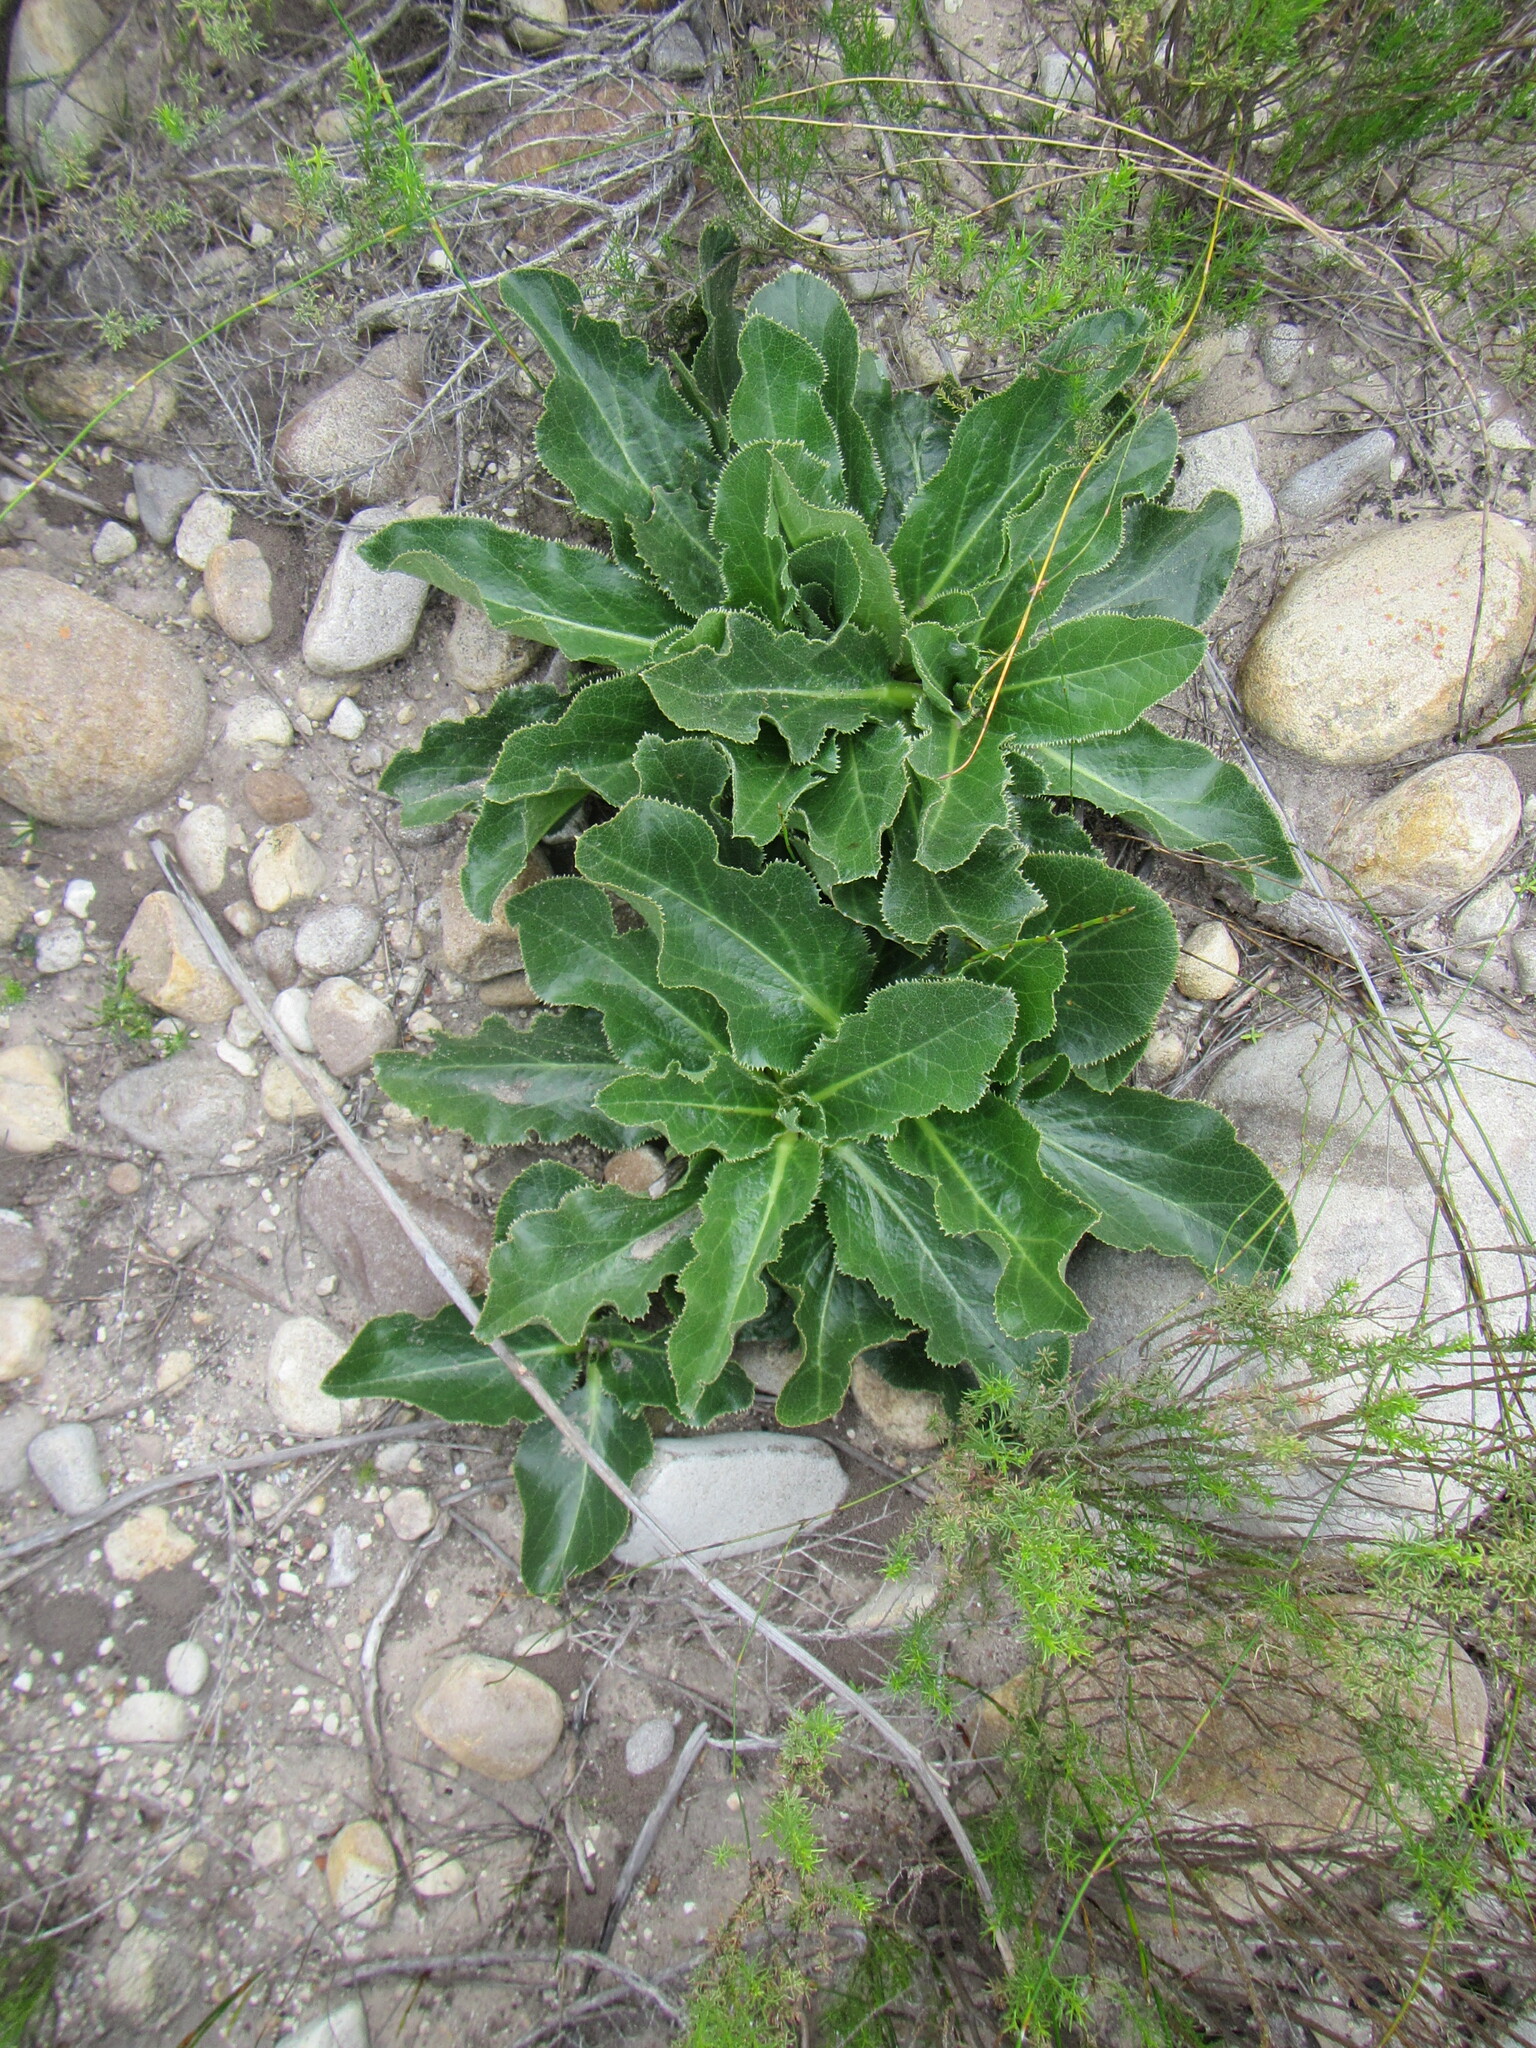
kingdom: Plantae
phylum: Tracheophyta
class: Magnoliopsida
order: Apiales
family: Apiaceae
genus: Lichtensteinia
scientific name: Lichtensteinia trifida
